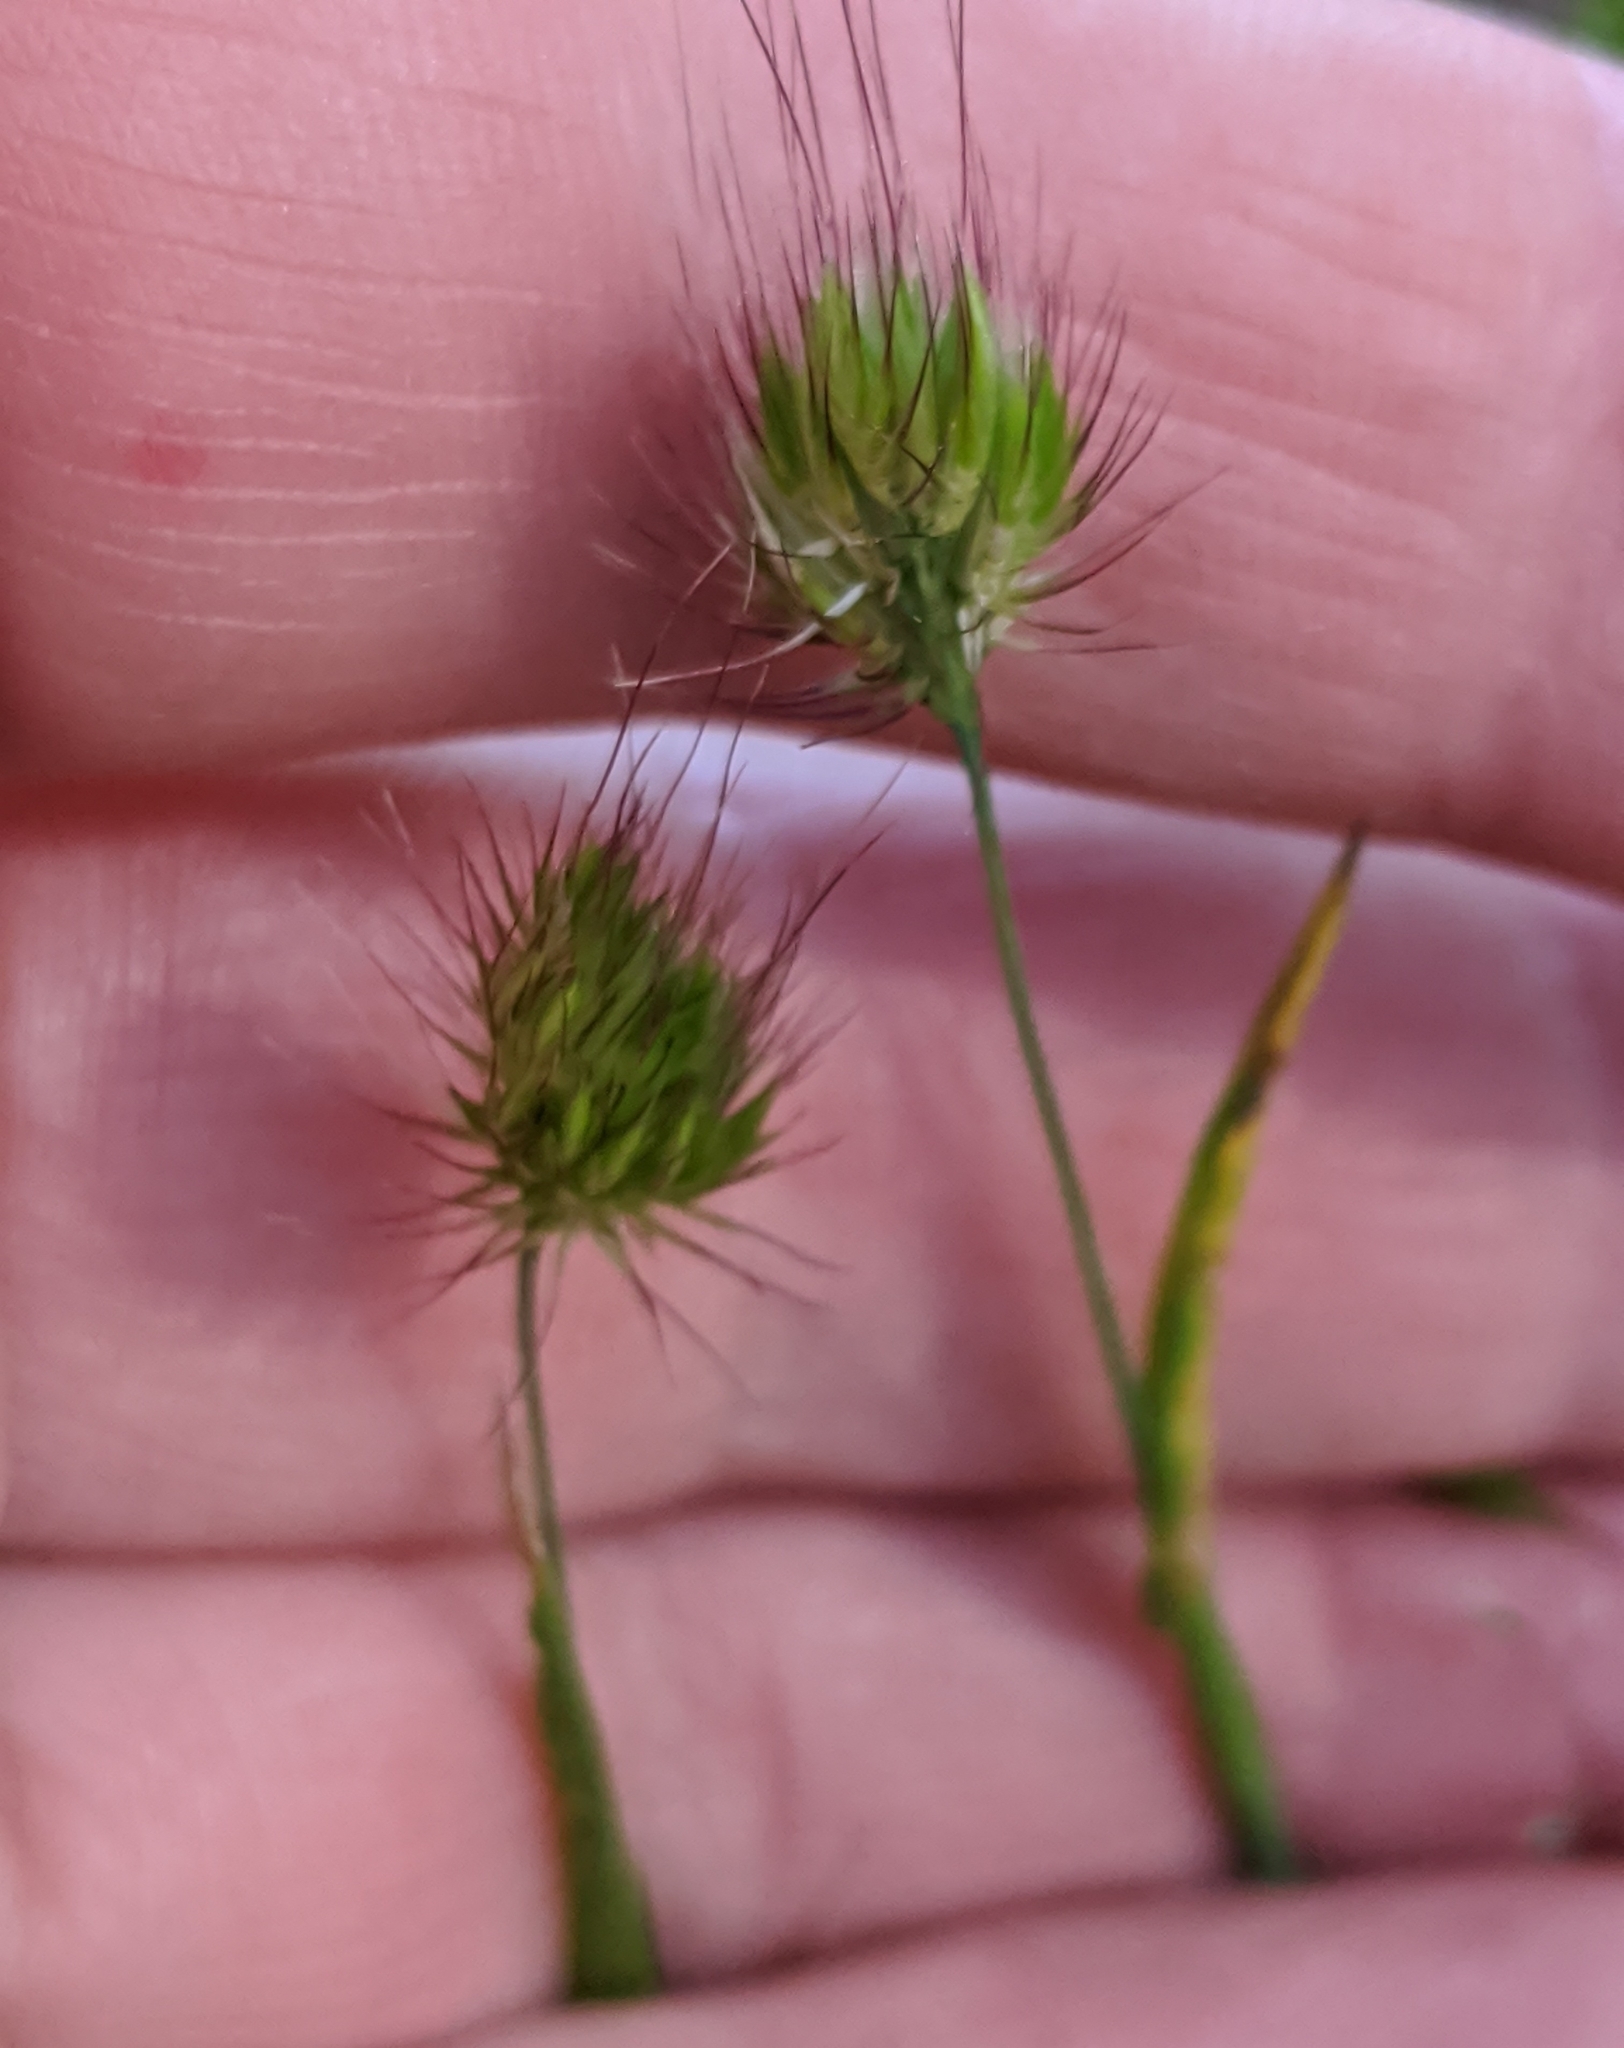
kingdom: Plantae
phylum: Tracheophyta
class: Liliopsida
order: Poales
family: Poaceae
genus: Cynosurus
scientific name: Cynosurus echinatus
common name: Rough dog's-tail
